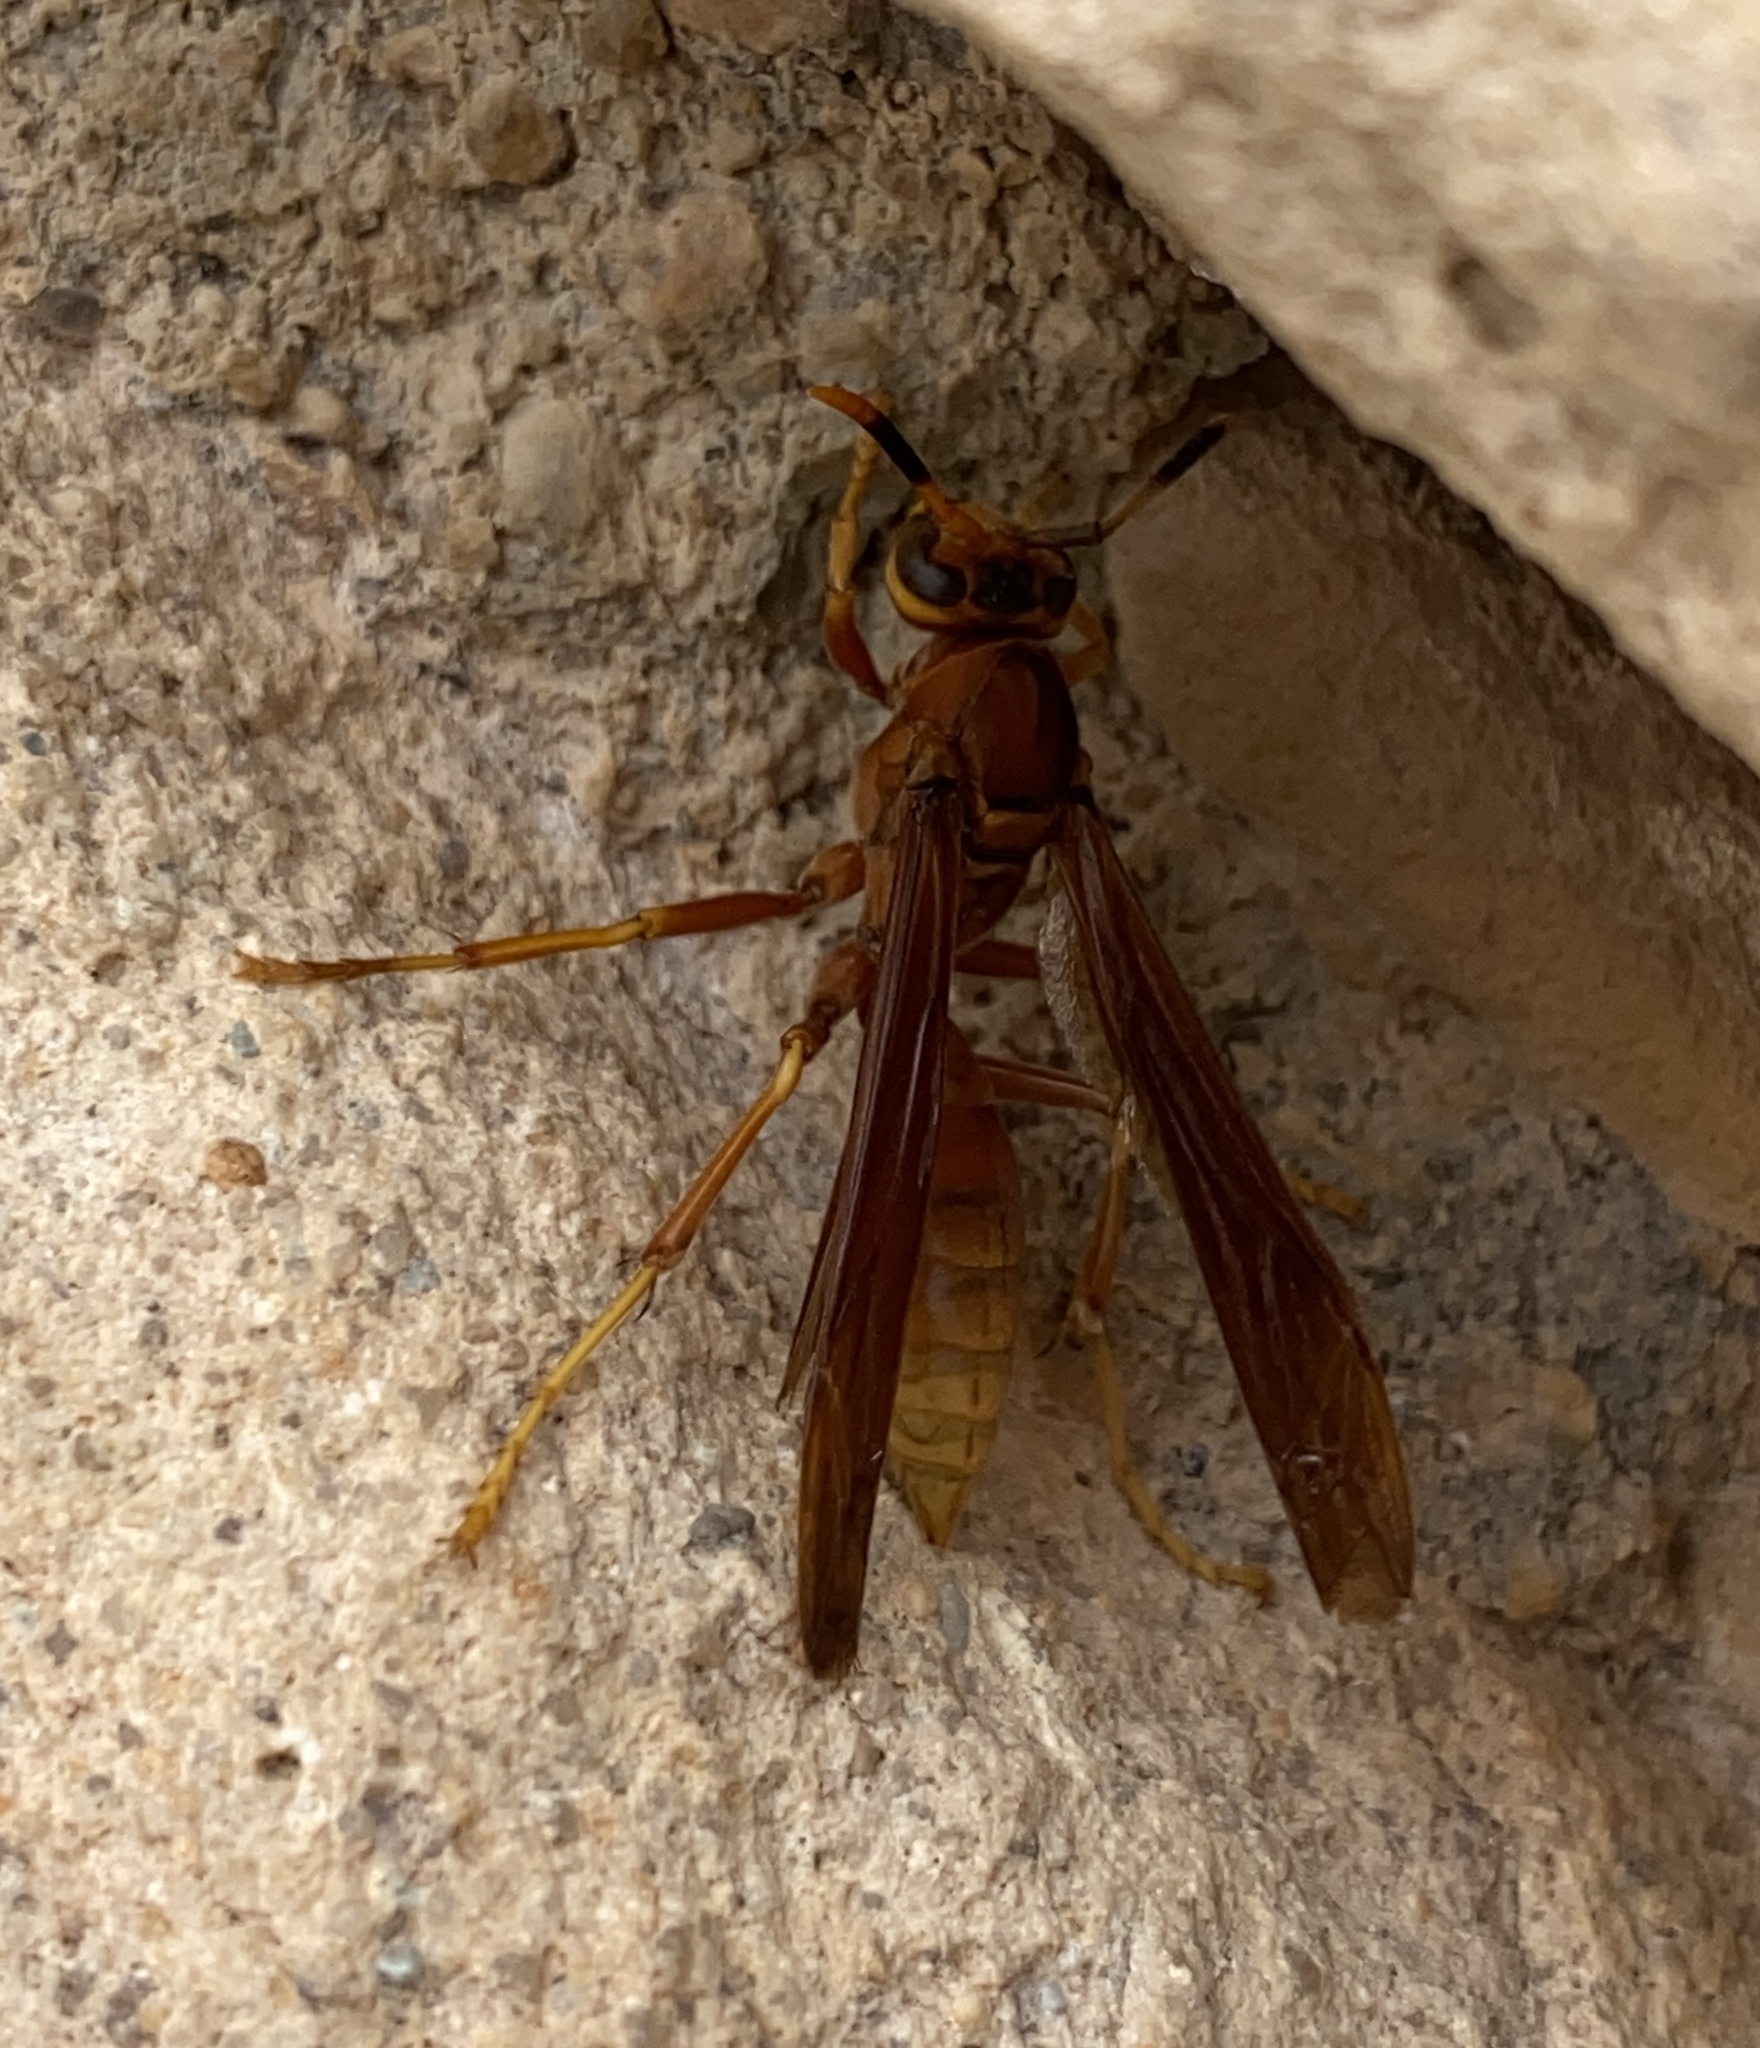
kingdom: Animalia
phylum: Arthropoda
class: Insecta
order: Hymenoptera
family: Eumenidae
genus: Polistes
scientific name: Polistes comanchus
